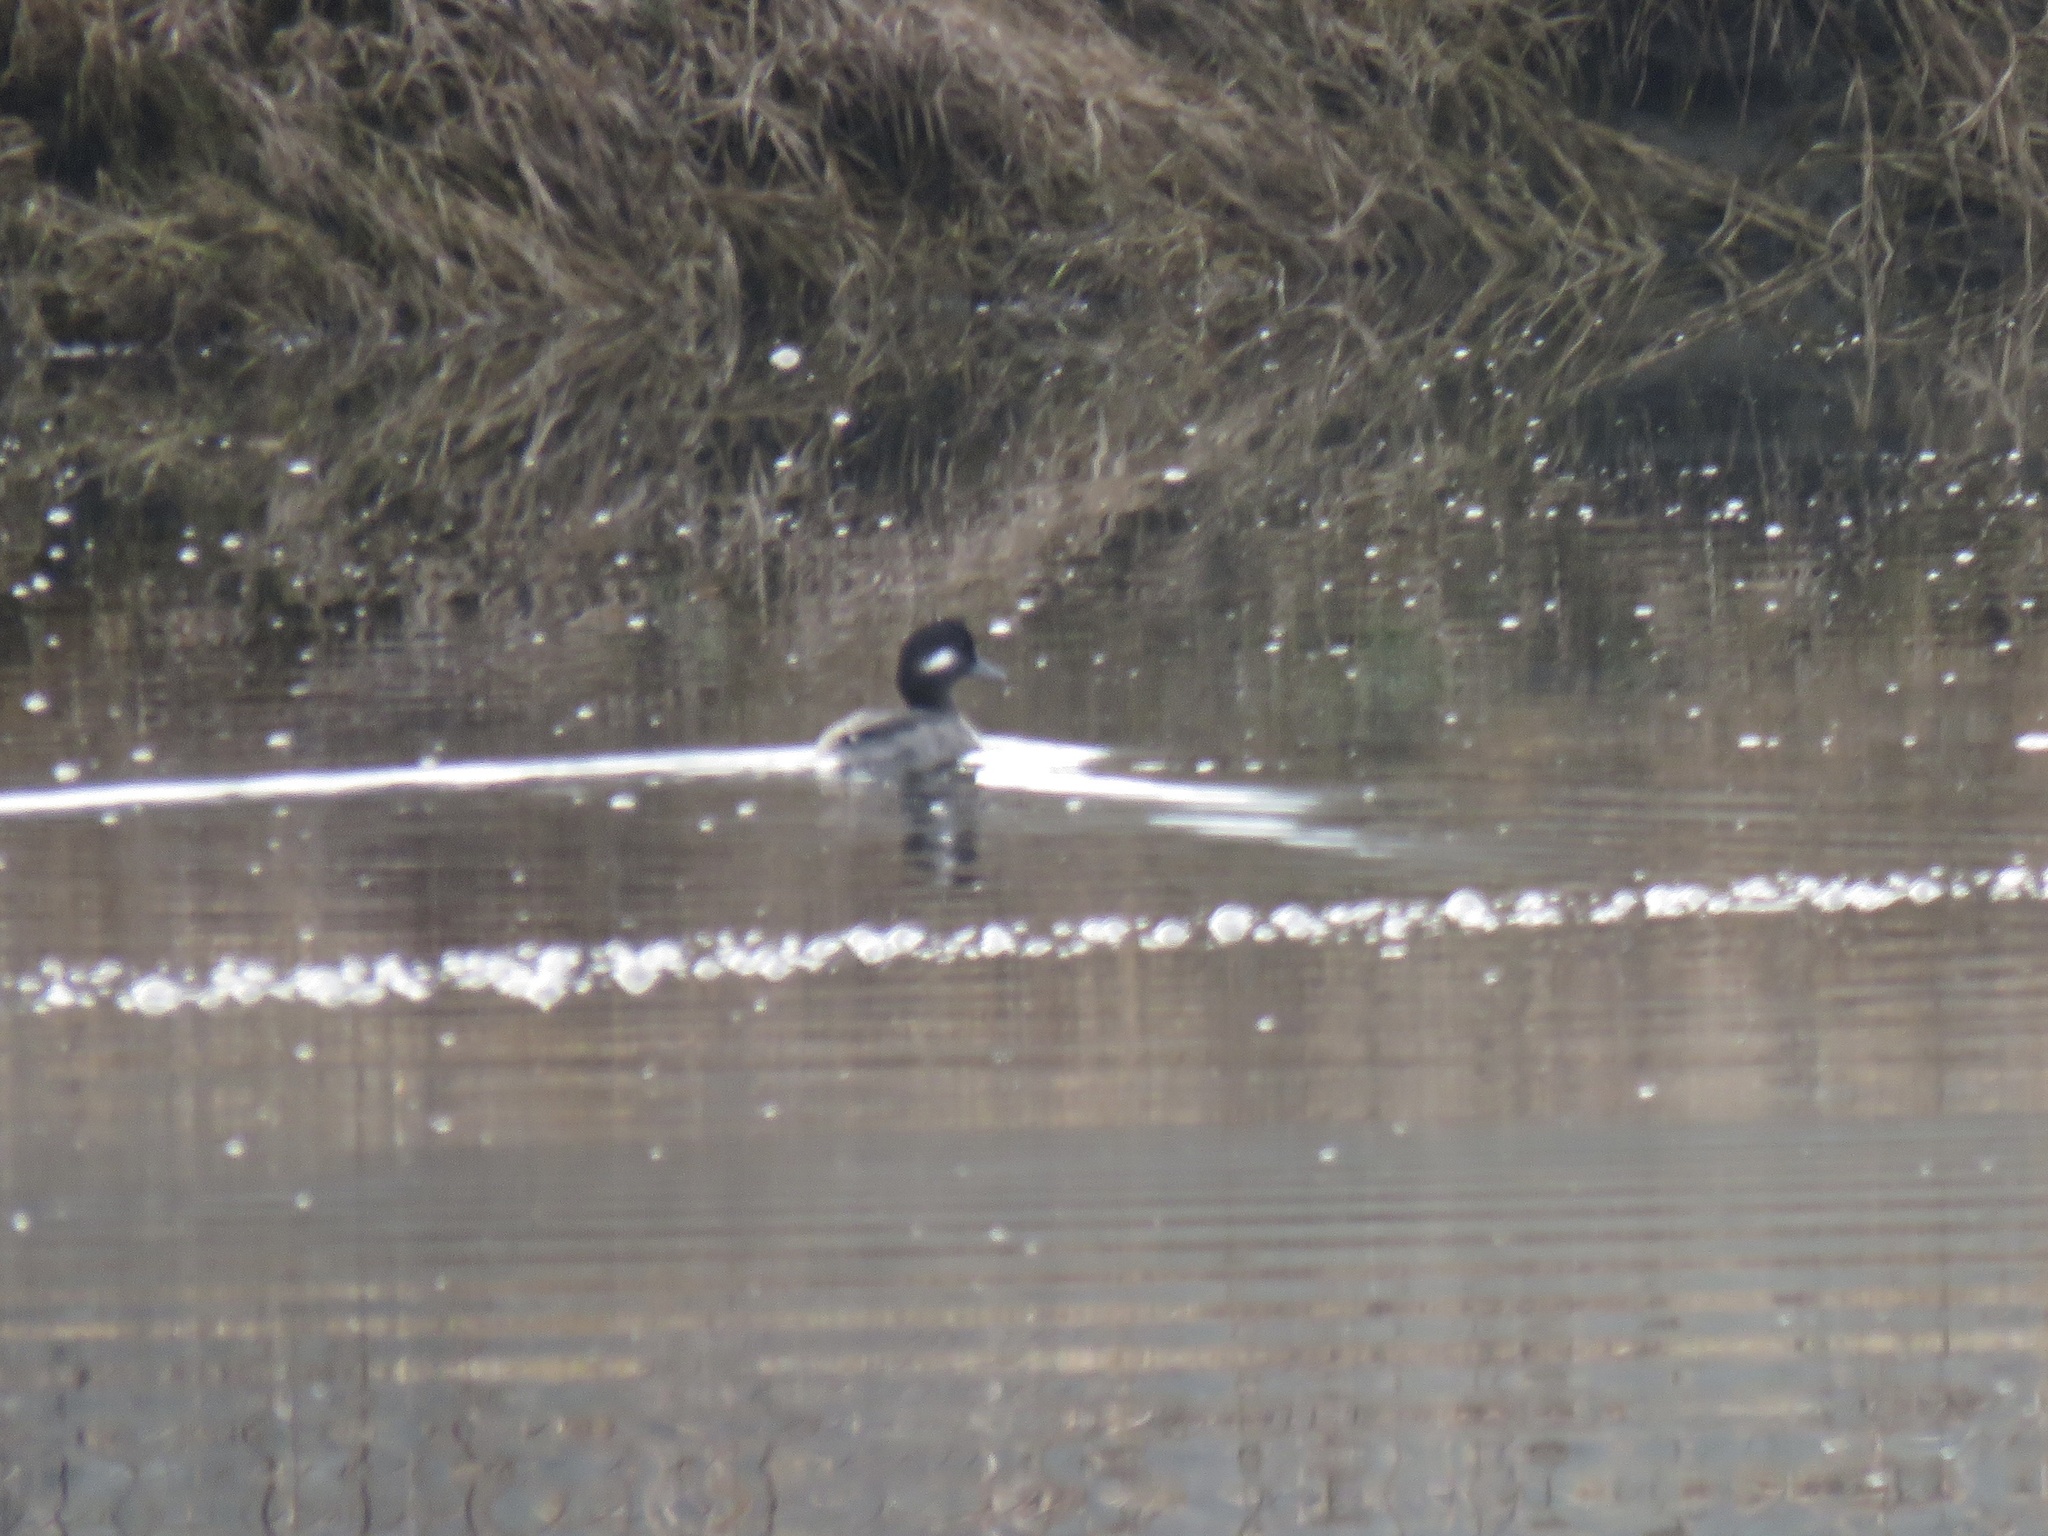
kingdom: Animalia
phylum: Chordata
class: Aves
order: Anseriformes
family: Anatidae
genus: Bucephala
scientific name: Bucephala albeola
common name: Bufflehead
